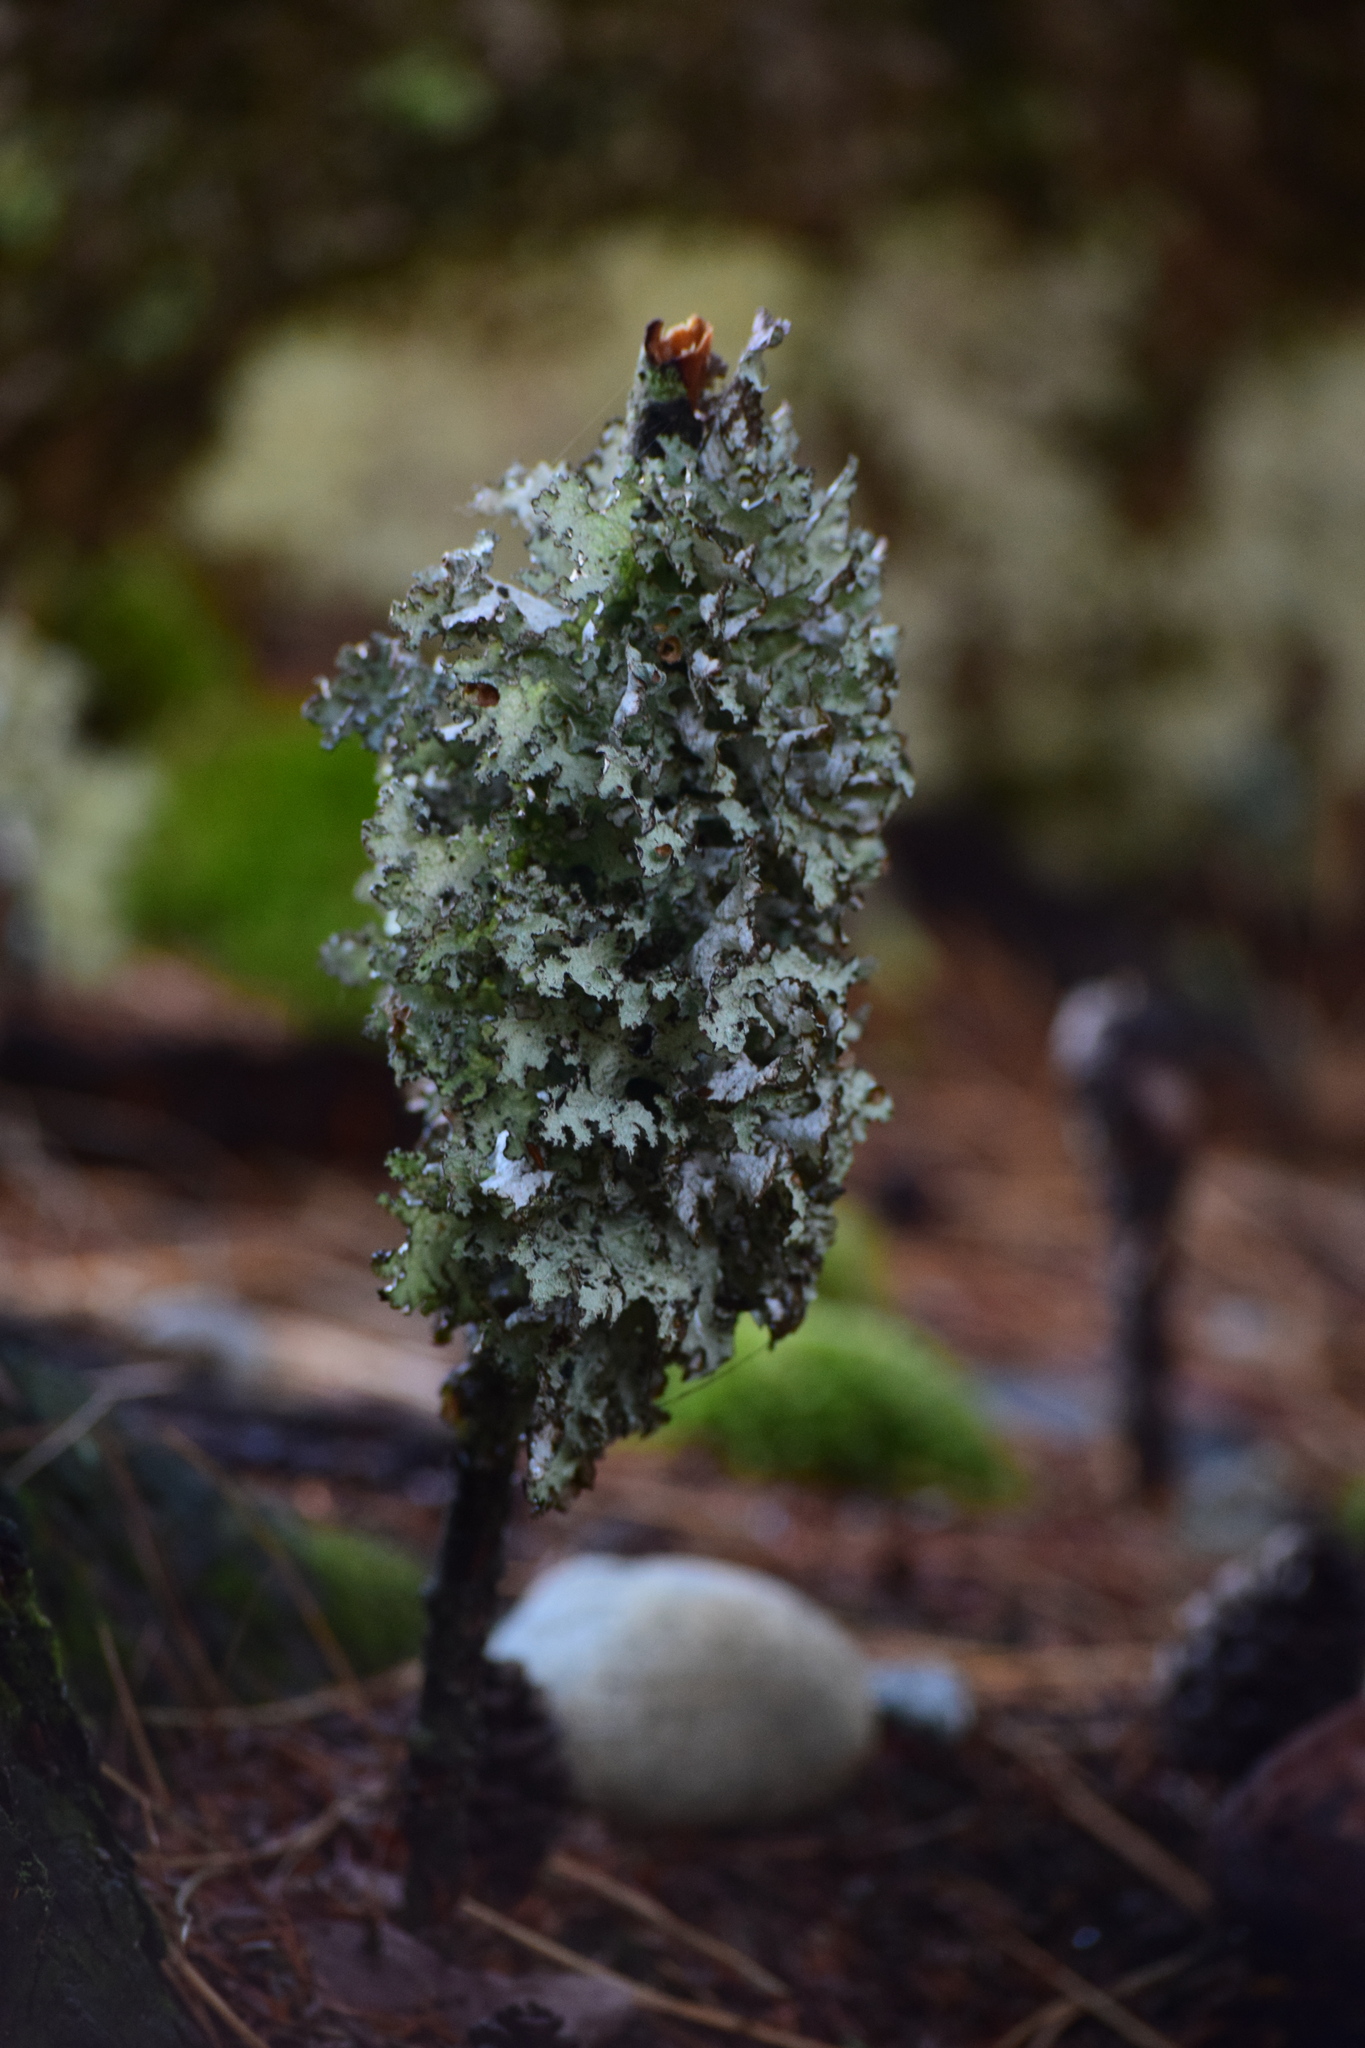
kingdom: Fungi
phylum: Ascomycota
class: Lecanoromycetes
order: Lecanorales
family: Parmeliaceae
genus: Platismatia
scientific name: Platismatia tuckermanii
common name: Crumpled rag lichen
